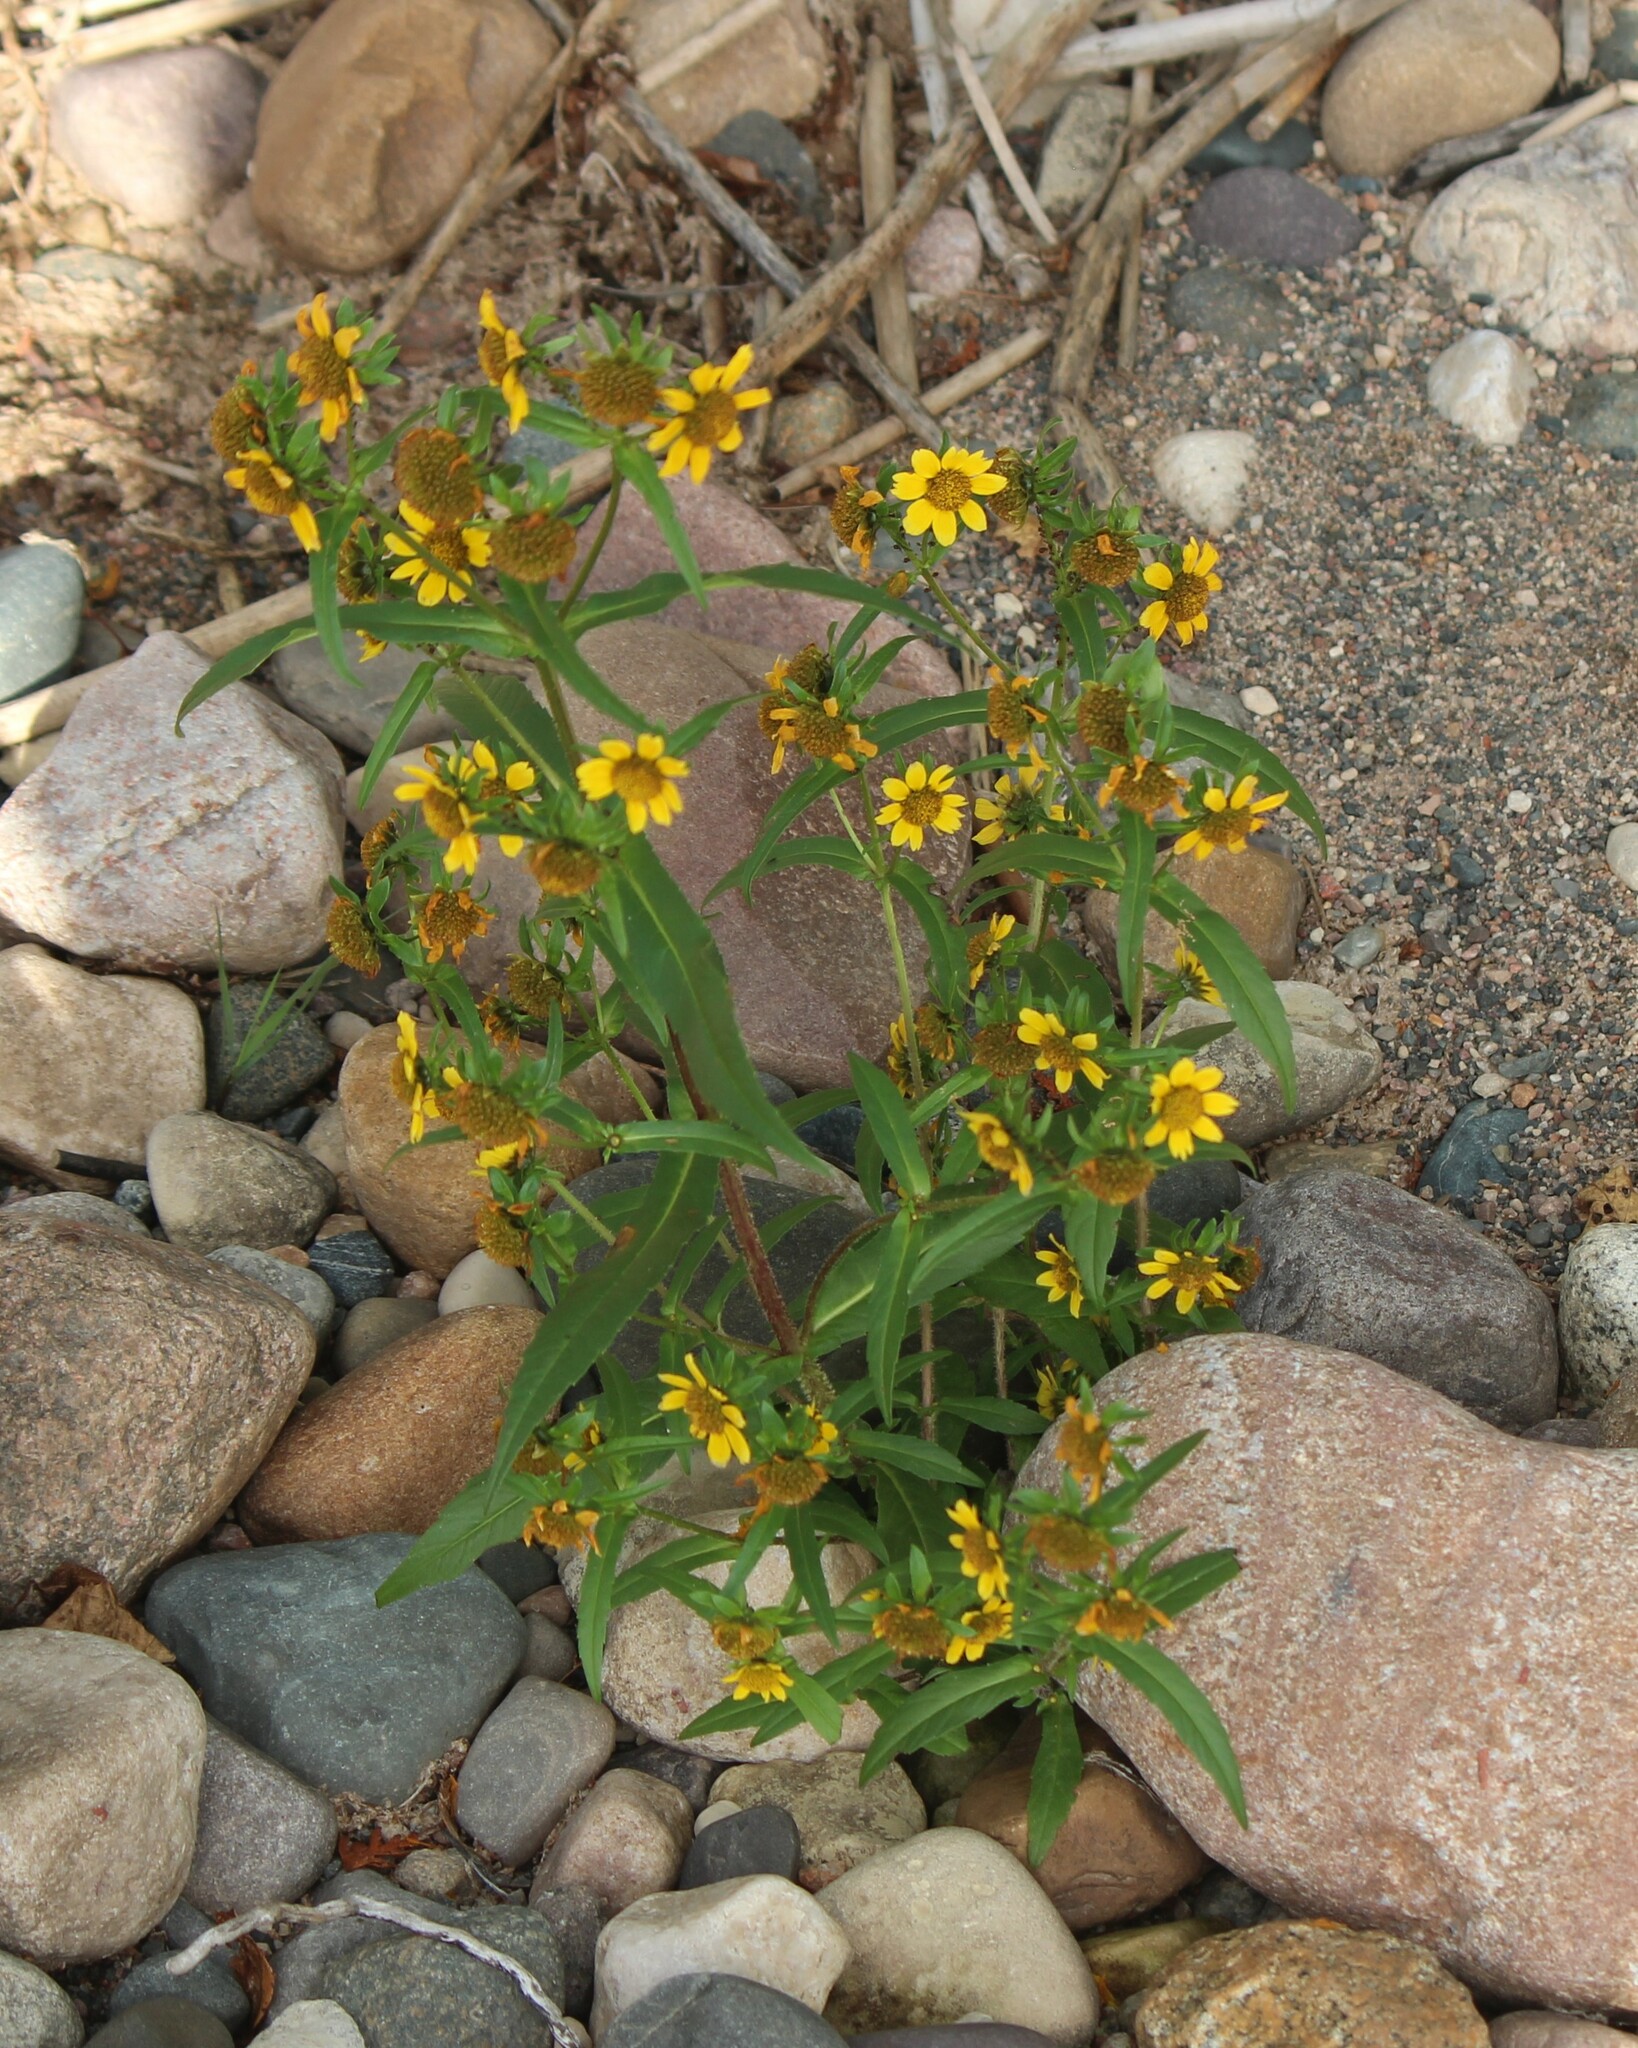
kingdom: Plantae
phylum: Tracheophyta
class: Magnoliopsida
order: Asterales
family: Asteraceae
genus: Bidens
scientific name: Bidens cernua
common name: Nodding bur-marigold
